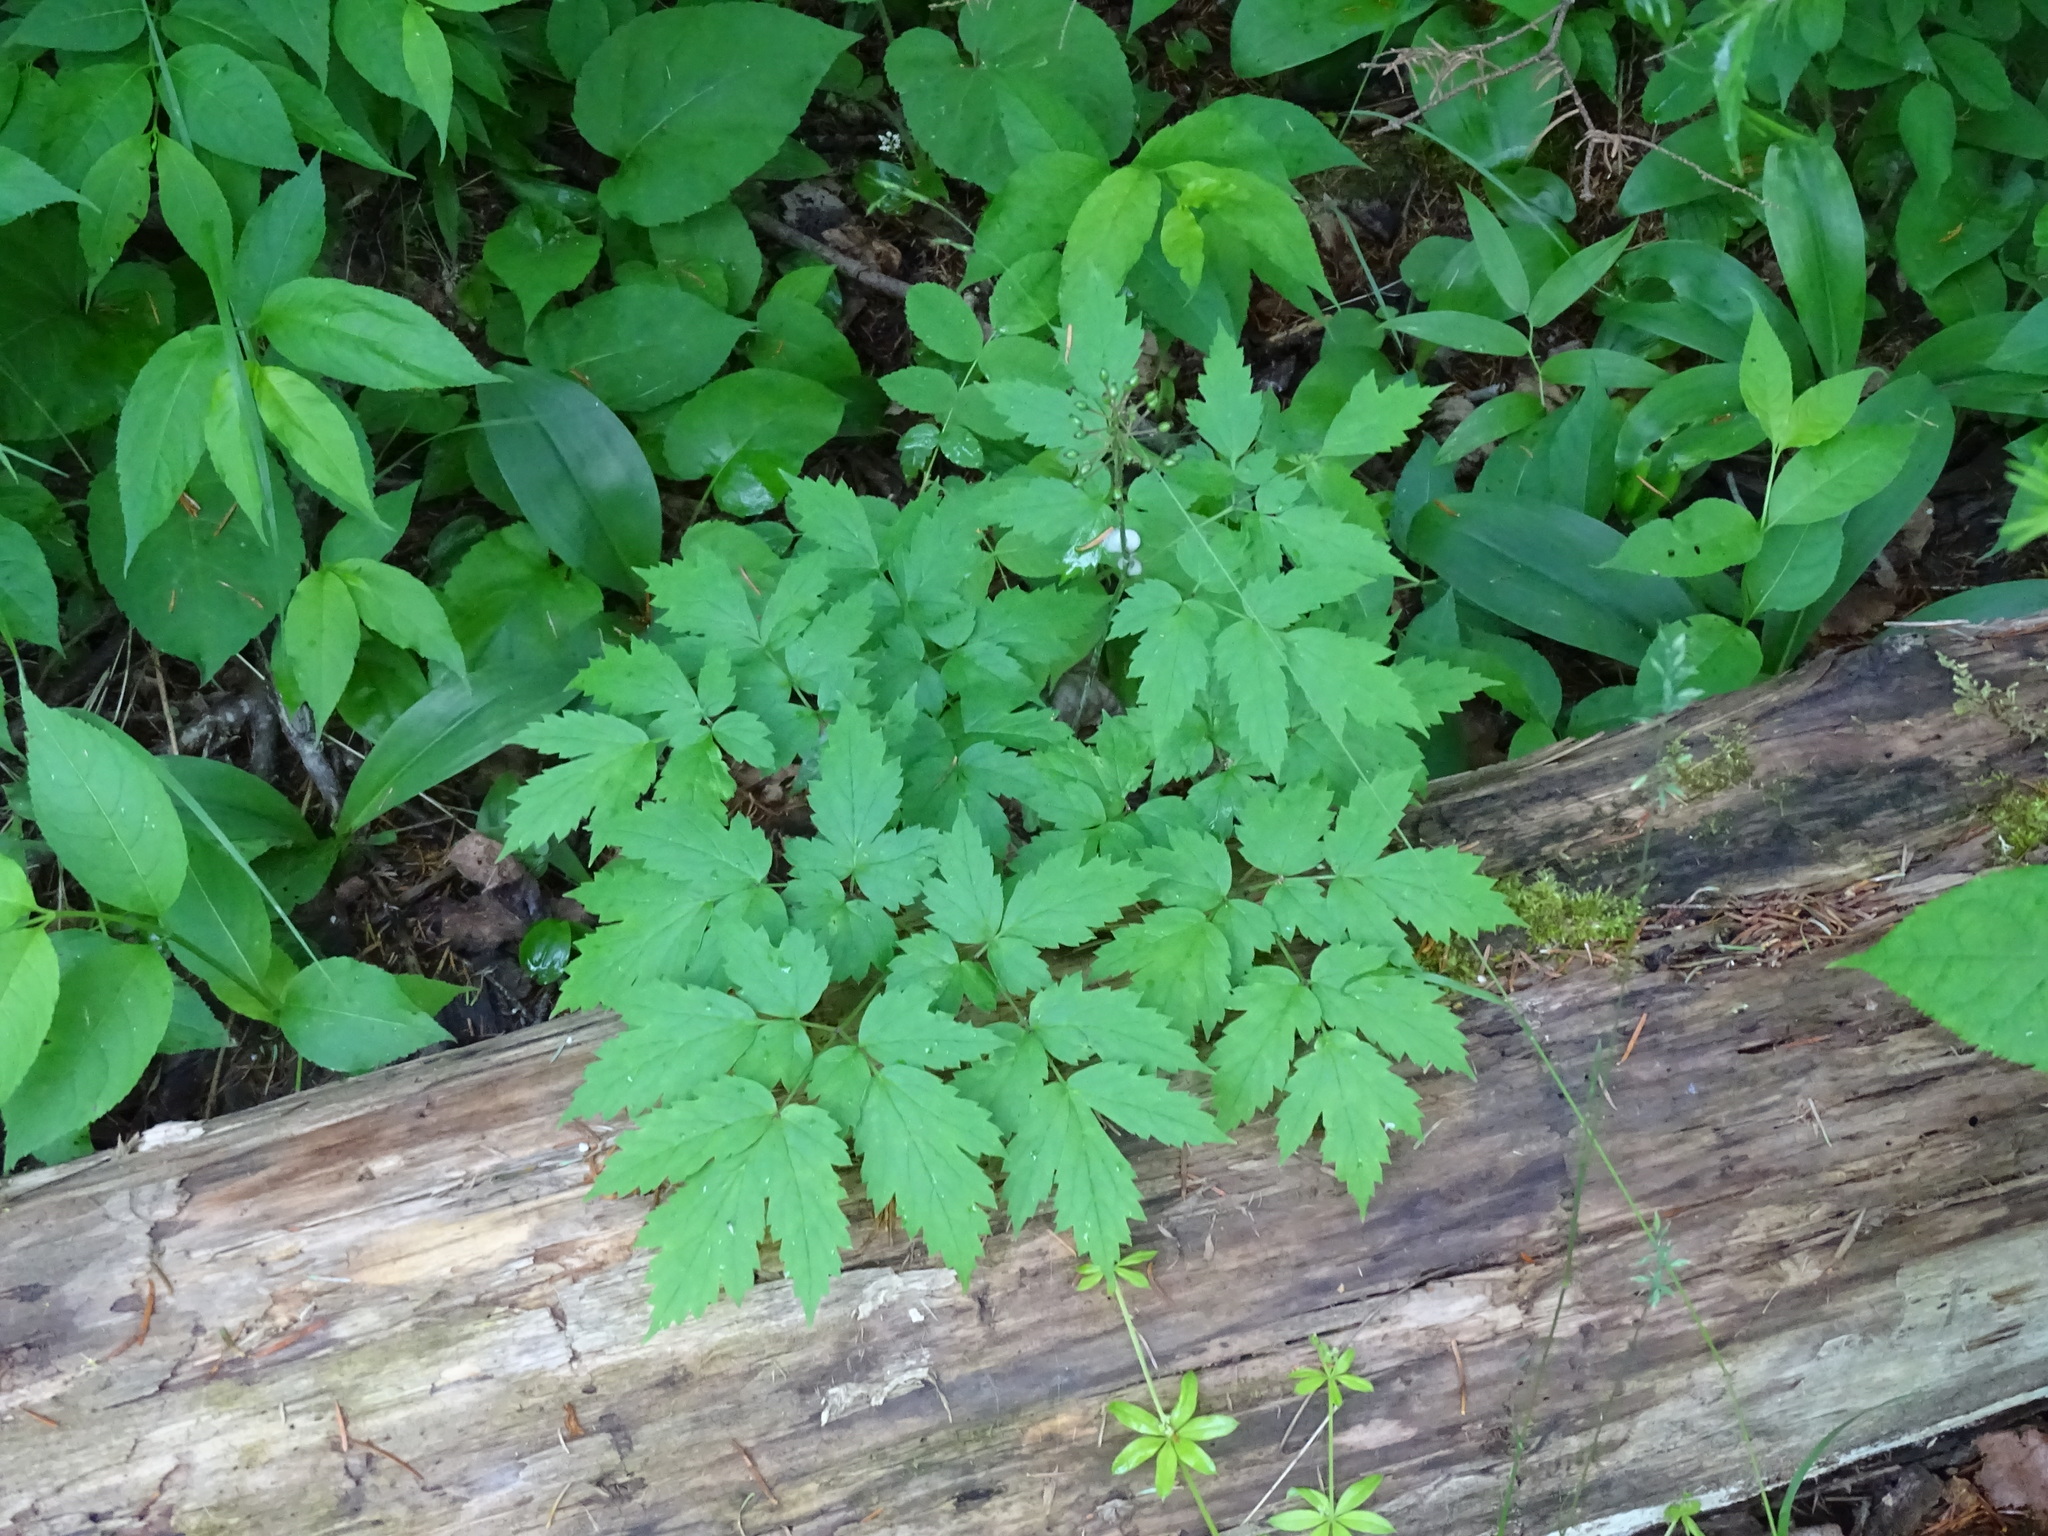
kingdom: Plantae
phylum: Tracheophyta
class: Magnoliopsida
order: Ranunculales
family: Ranunculaceae
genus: Actaea
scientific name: Actaea rubra
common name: Red baneberry
